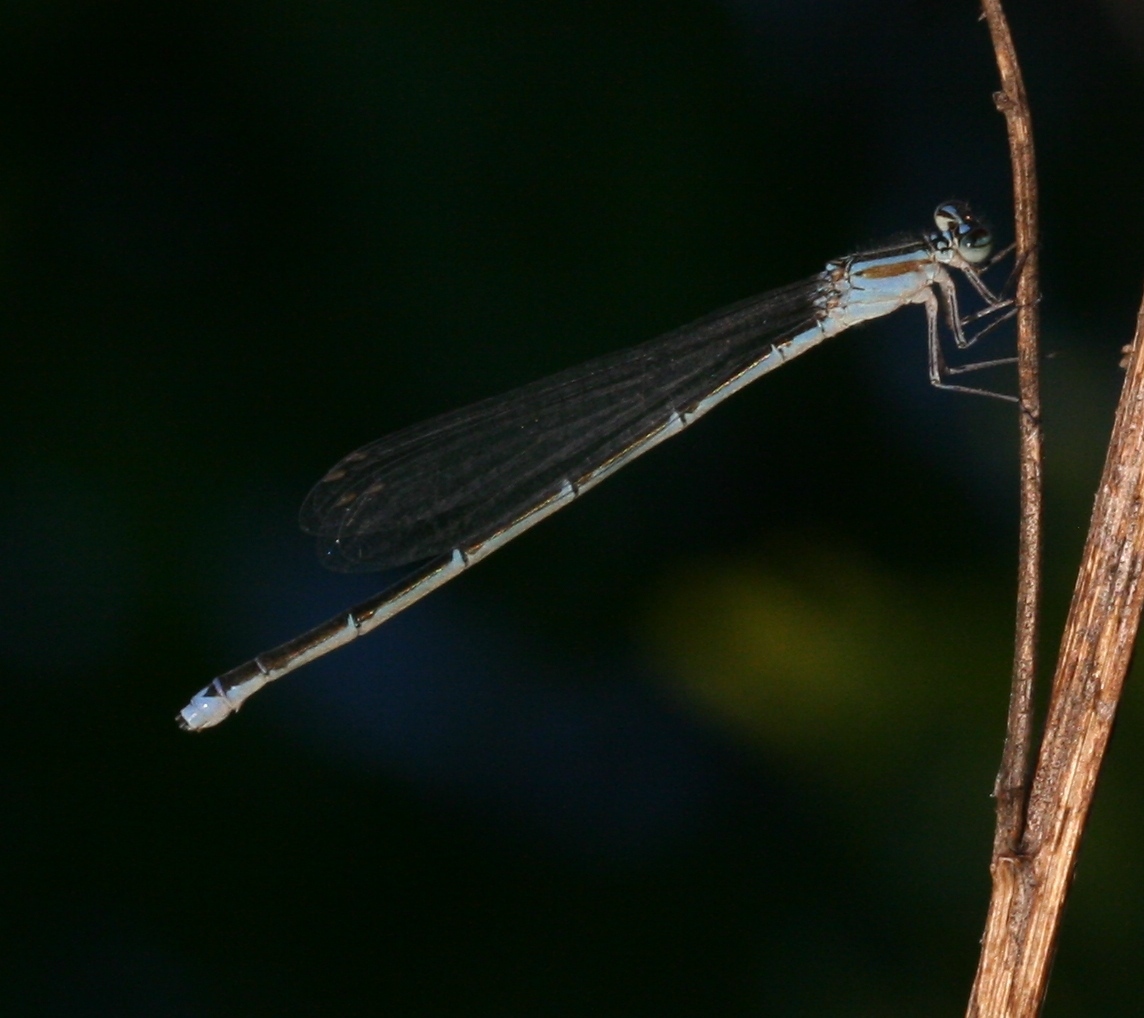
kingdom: Animalia
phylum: Arthropoda
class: Insecta
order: Odonata
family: Coenagrionidae
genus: Enallagma
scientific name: Enallagma exsulans
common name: Stream bluet
